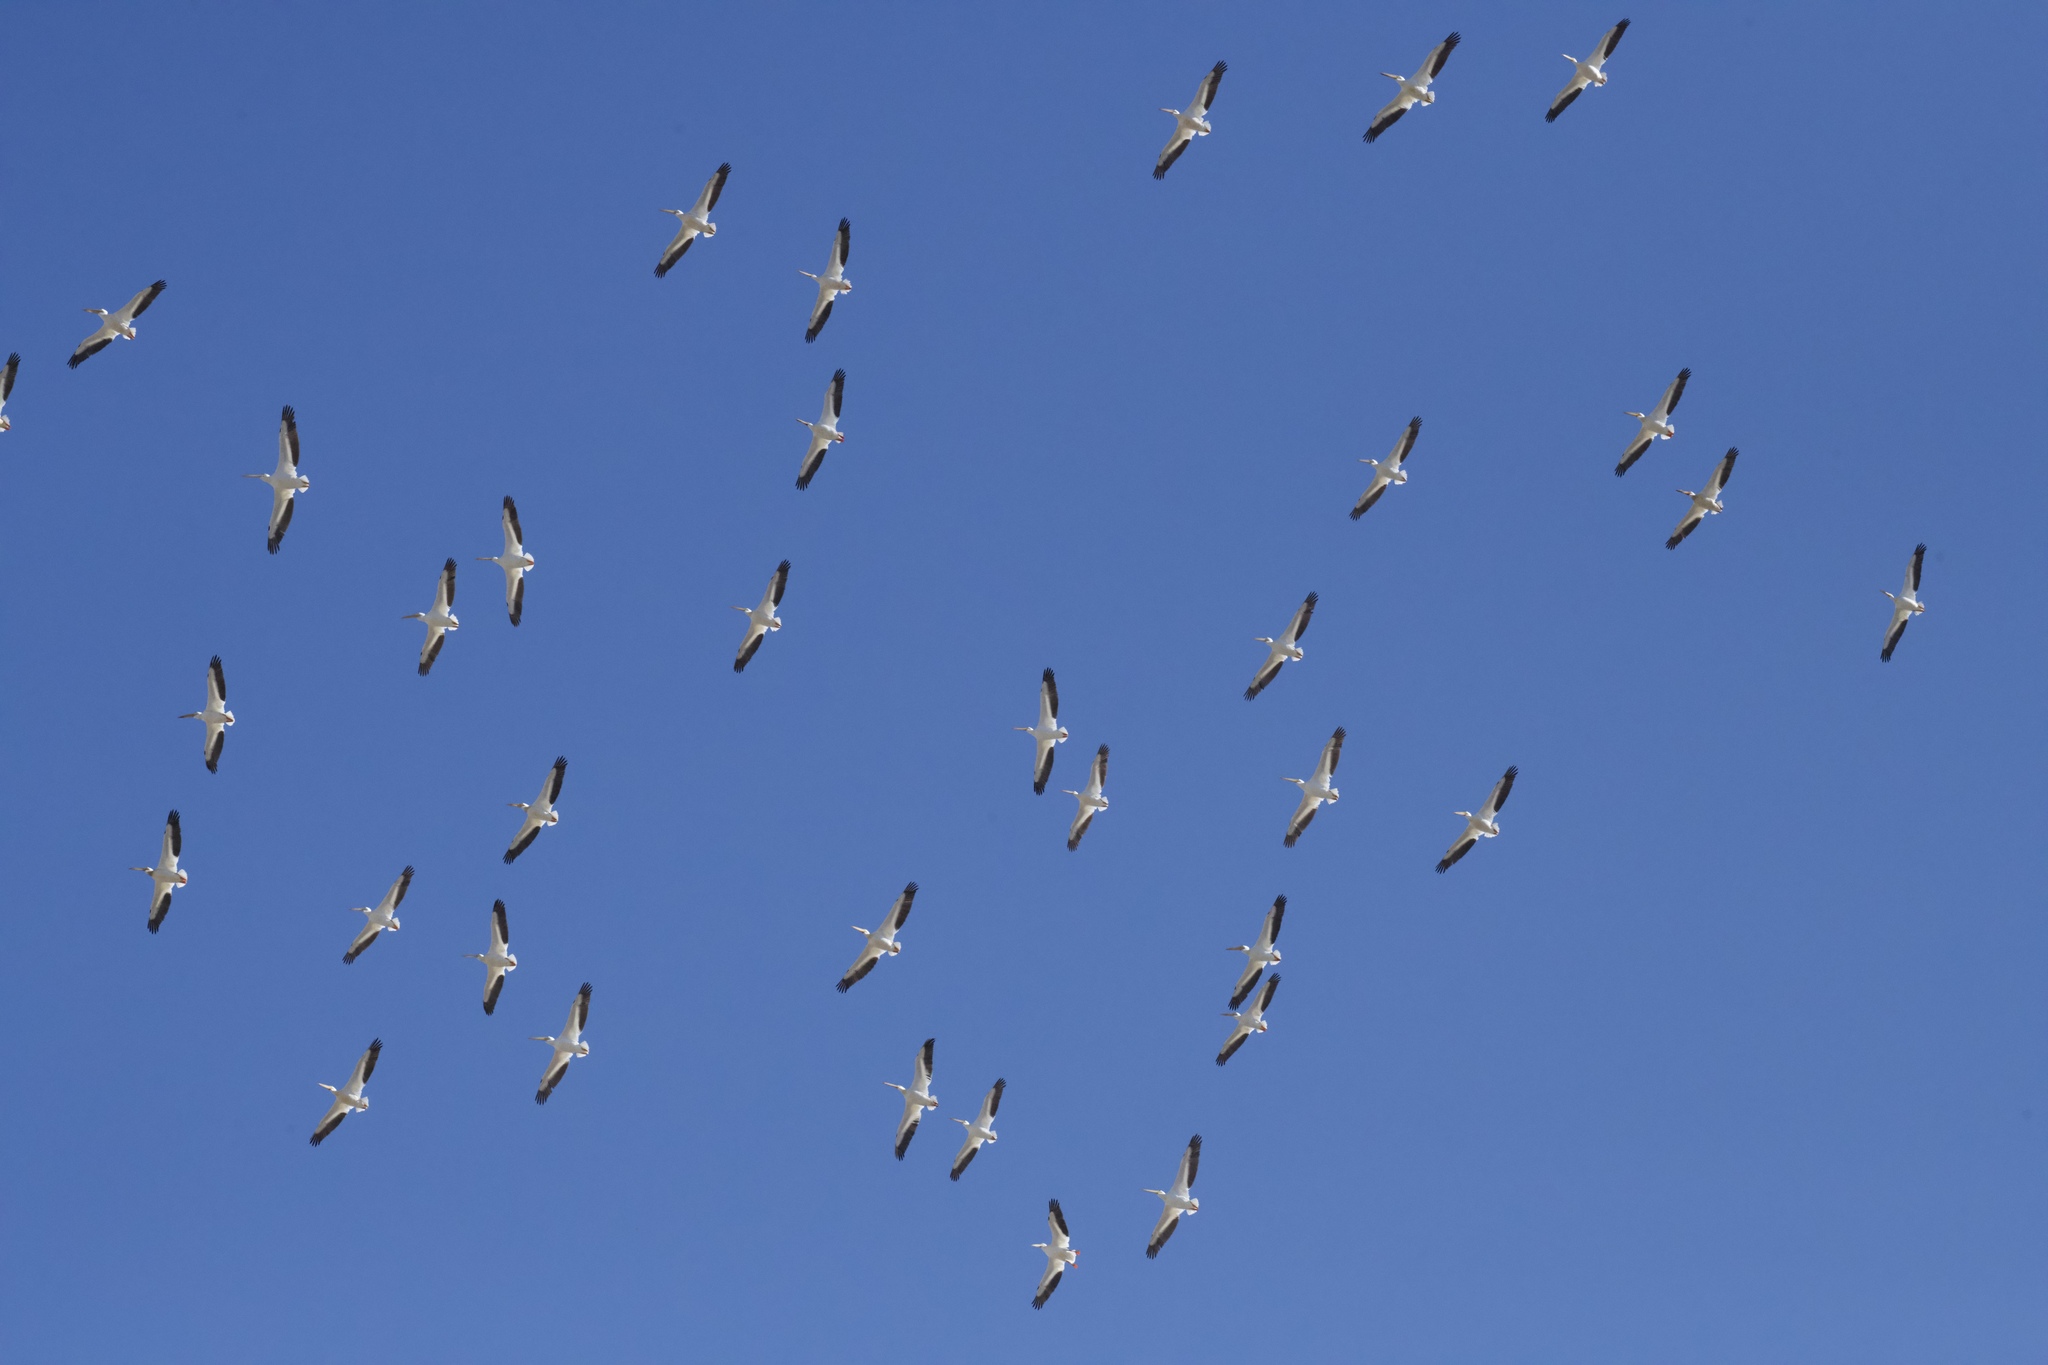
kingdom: Animalia
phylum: Chordata
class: Aves
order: Pelecaniformes
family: Pelecanidae
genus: Pelecanus
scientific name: Pelecanus erythrorhynchos
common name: American white pelican
